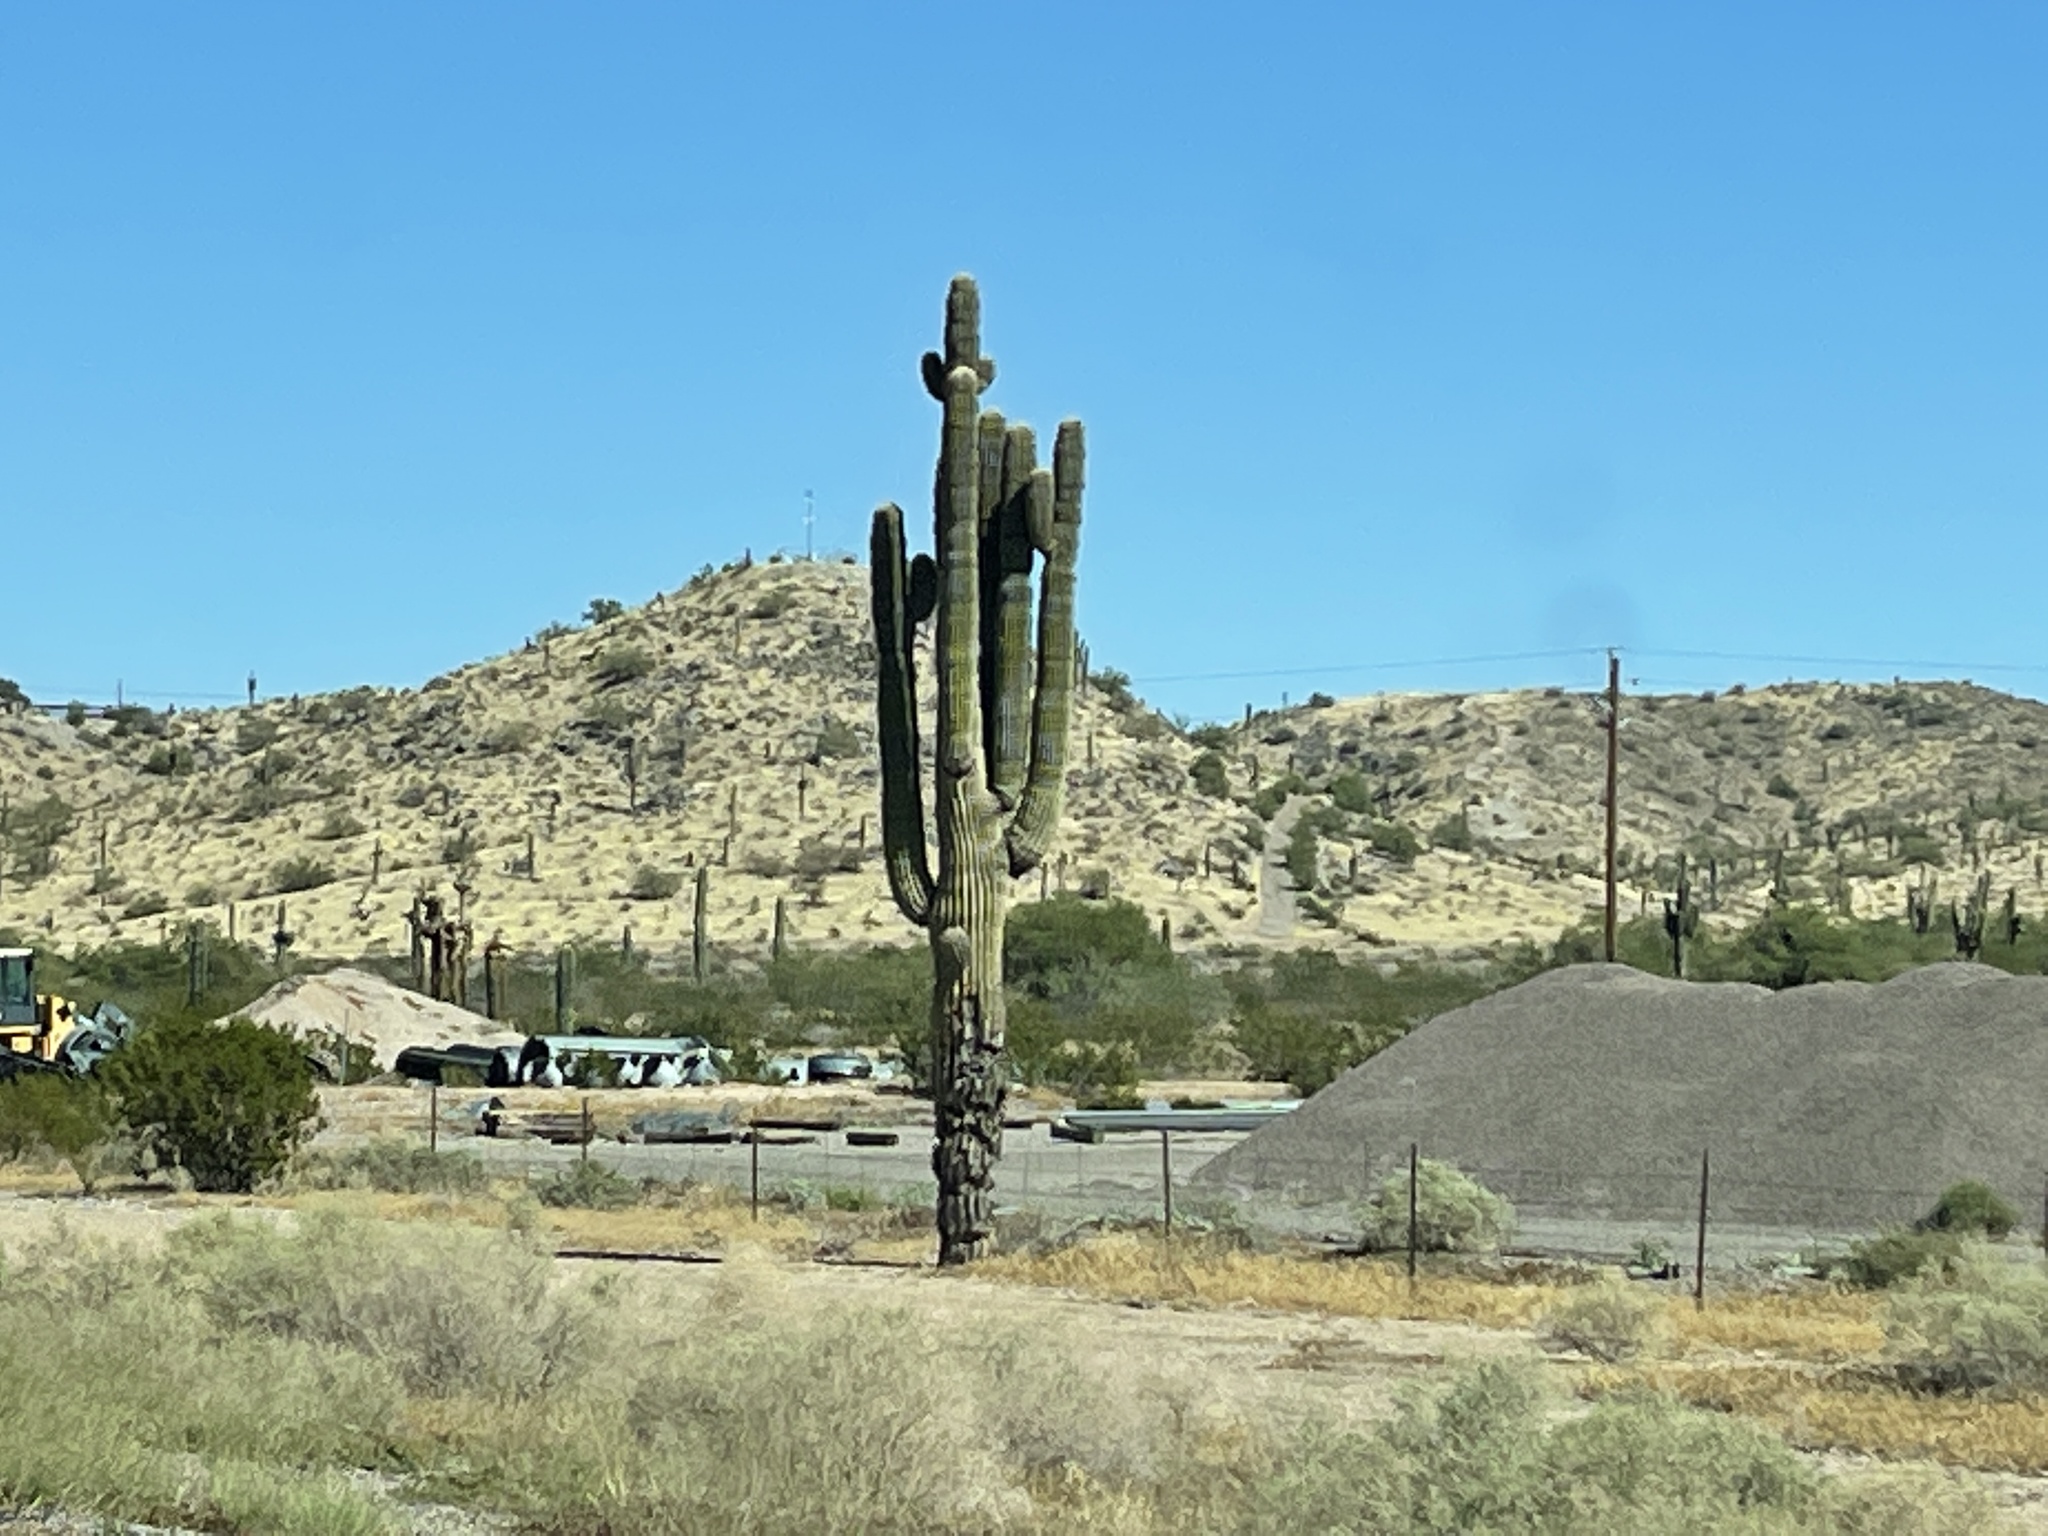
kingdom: Plantae
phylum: Tracheophyta
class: Magnoliopsida
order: Caryophyllales
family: Cactaceae
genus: Carnegiea
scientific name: Carnegiea gigantea
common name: Saguaro
